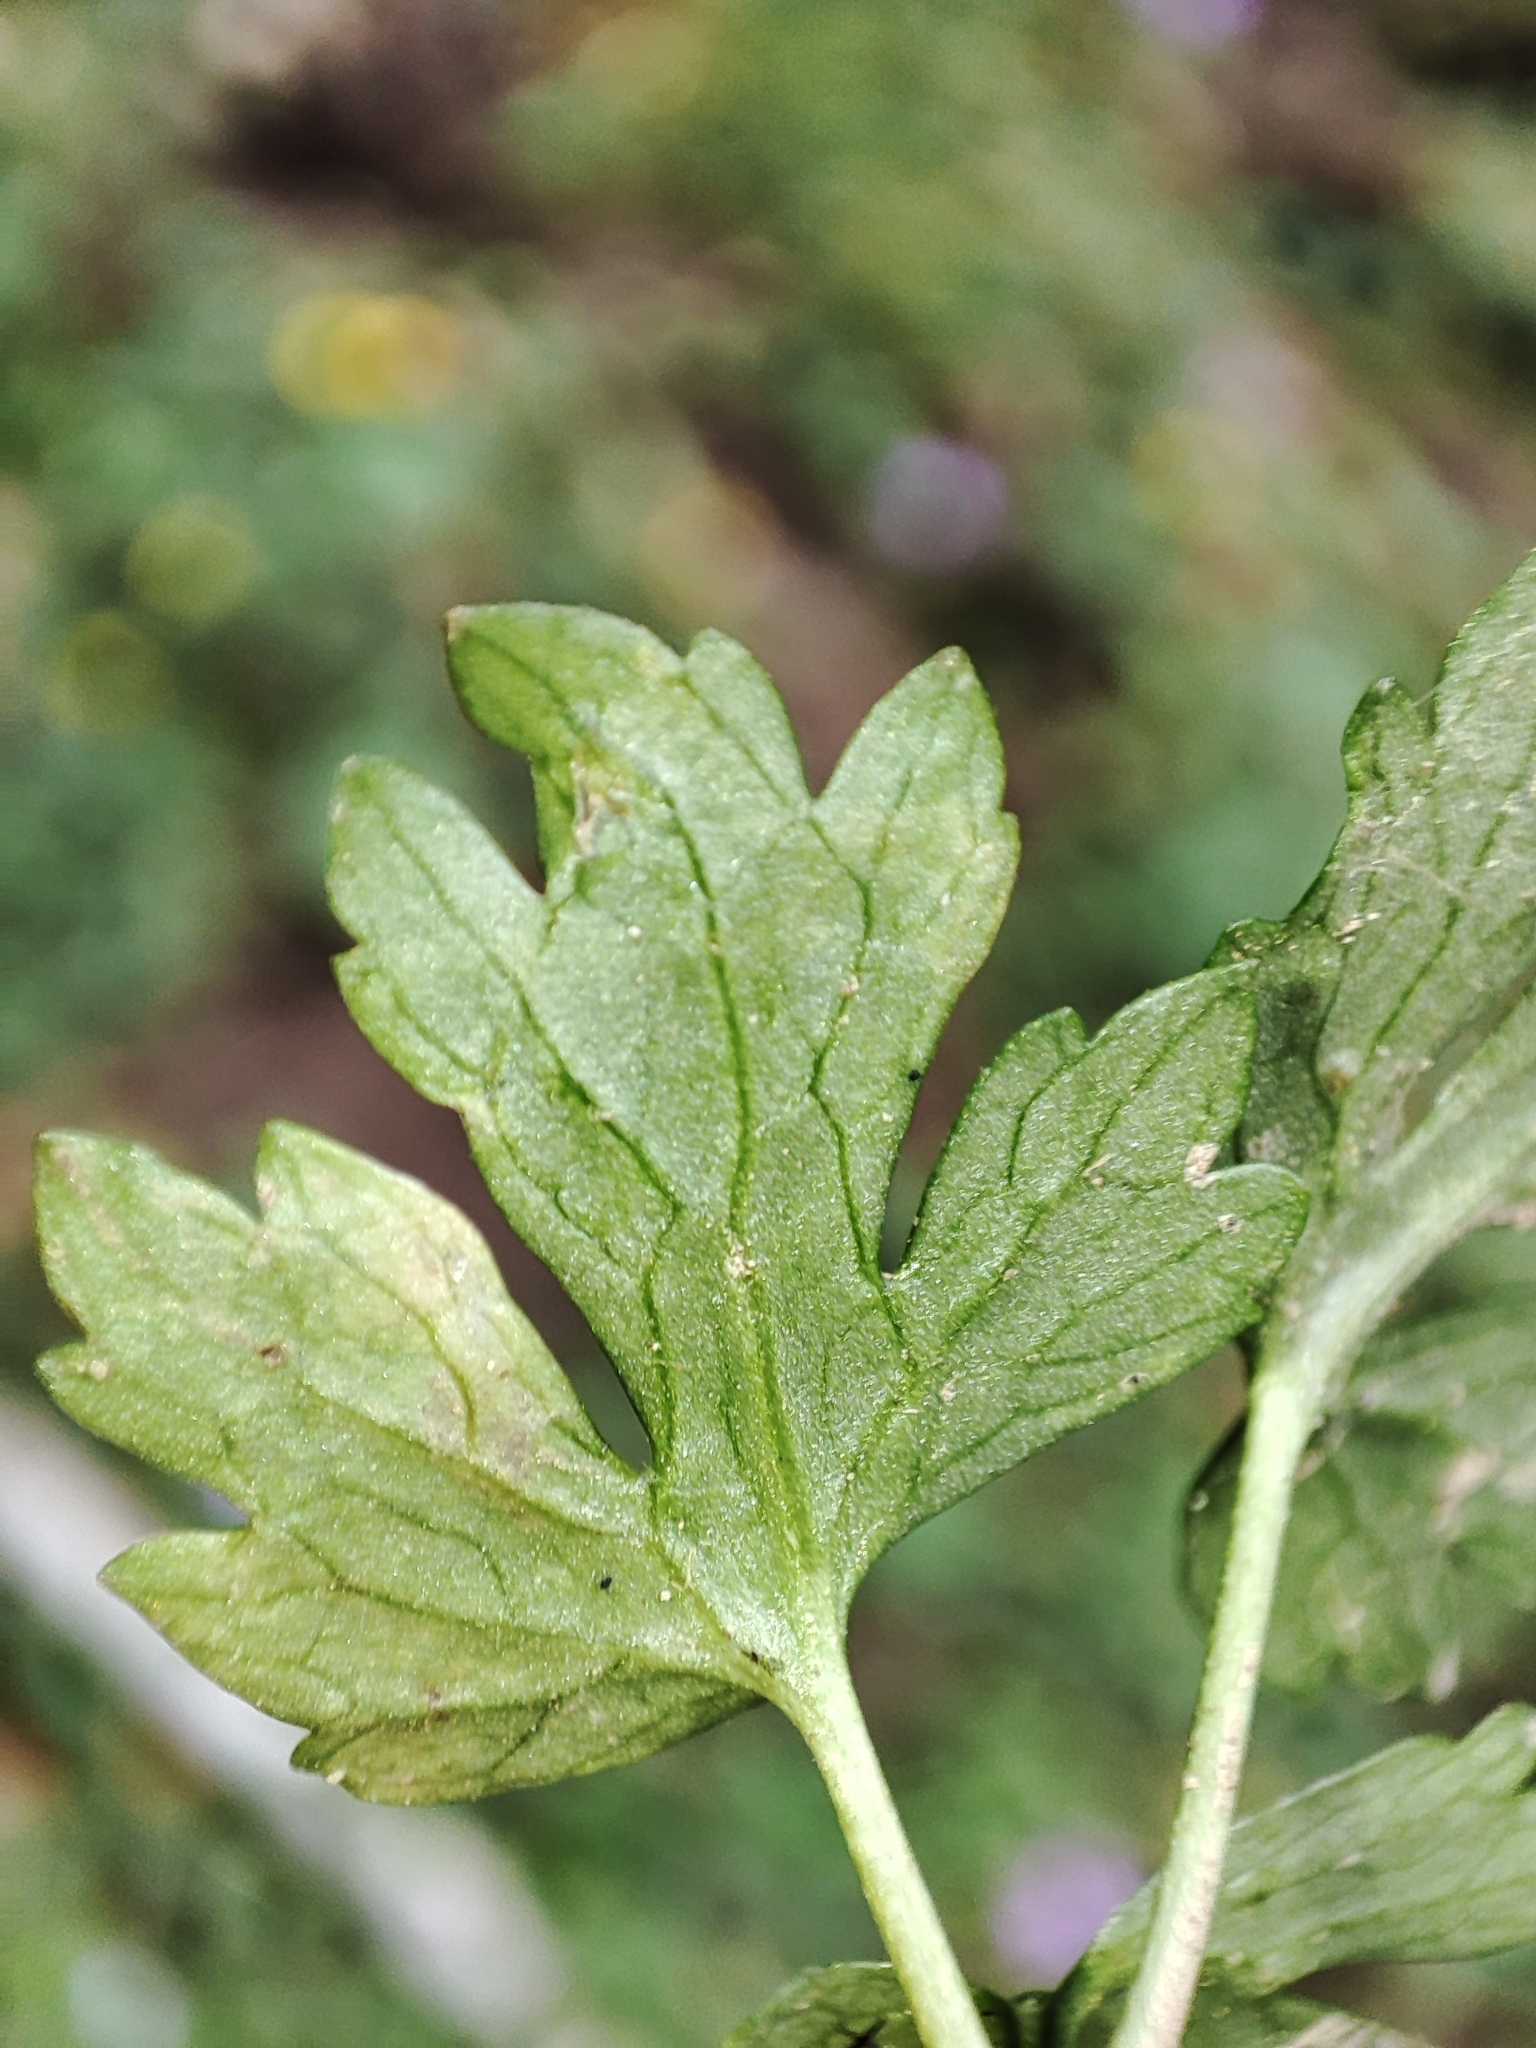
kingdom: Plantae
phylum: Tracheophyta
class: Magnoliopsida
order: Ranunculales
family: Ranunculaceae
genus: Ranunculus
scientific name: Ranunculus repens
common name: Creeping buttercup
